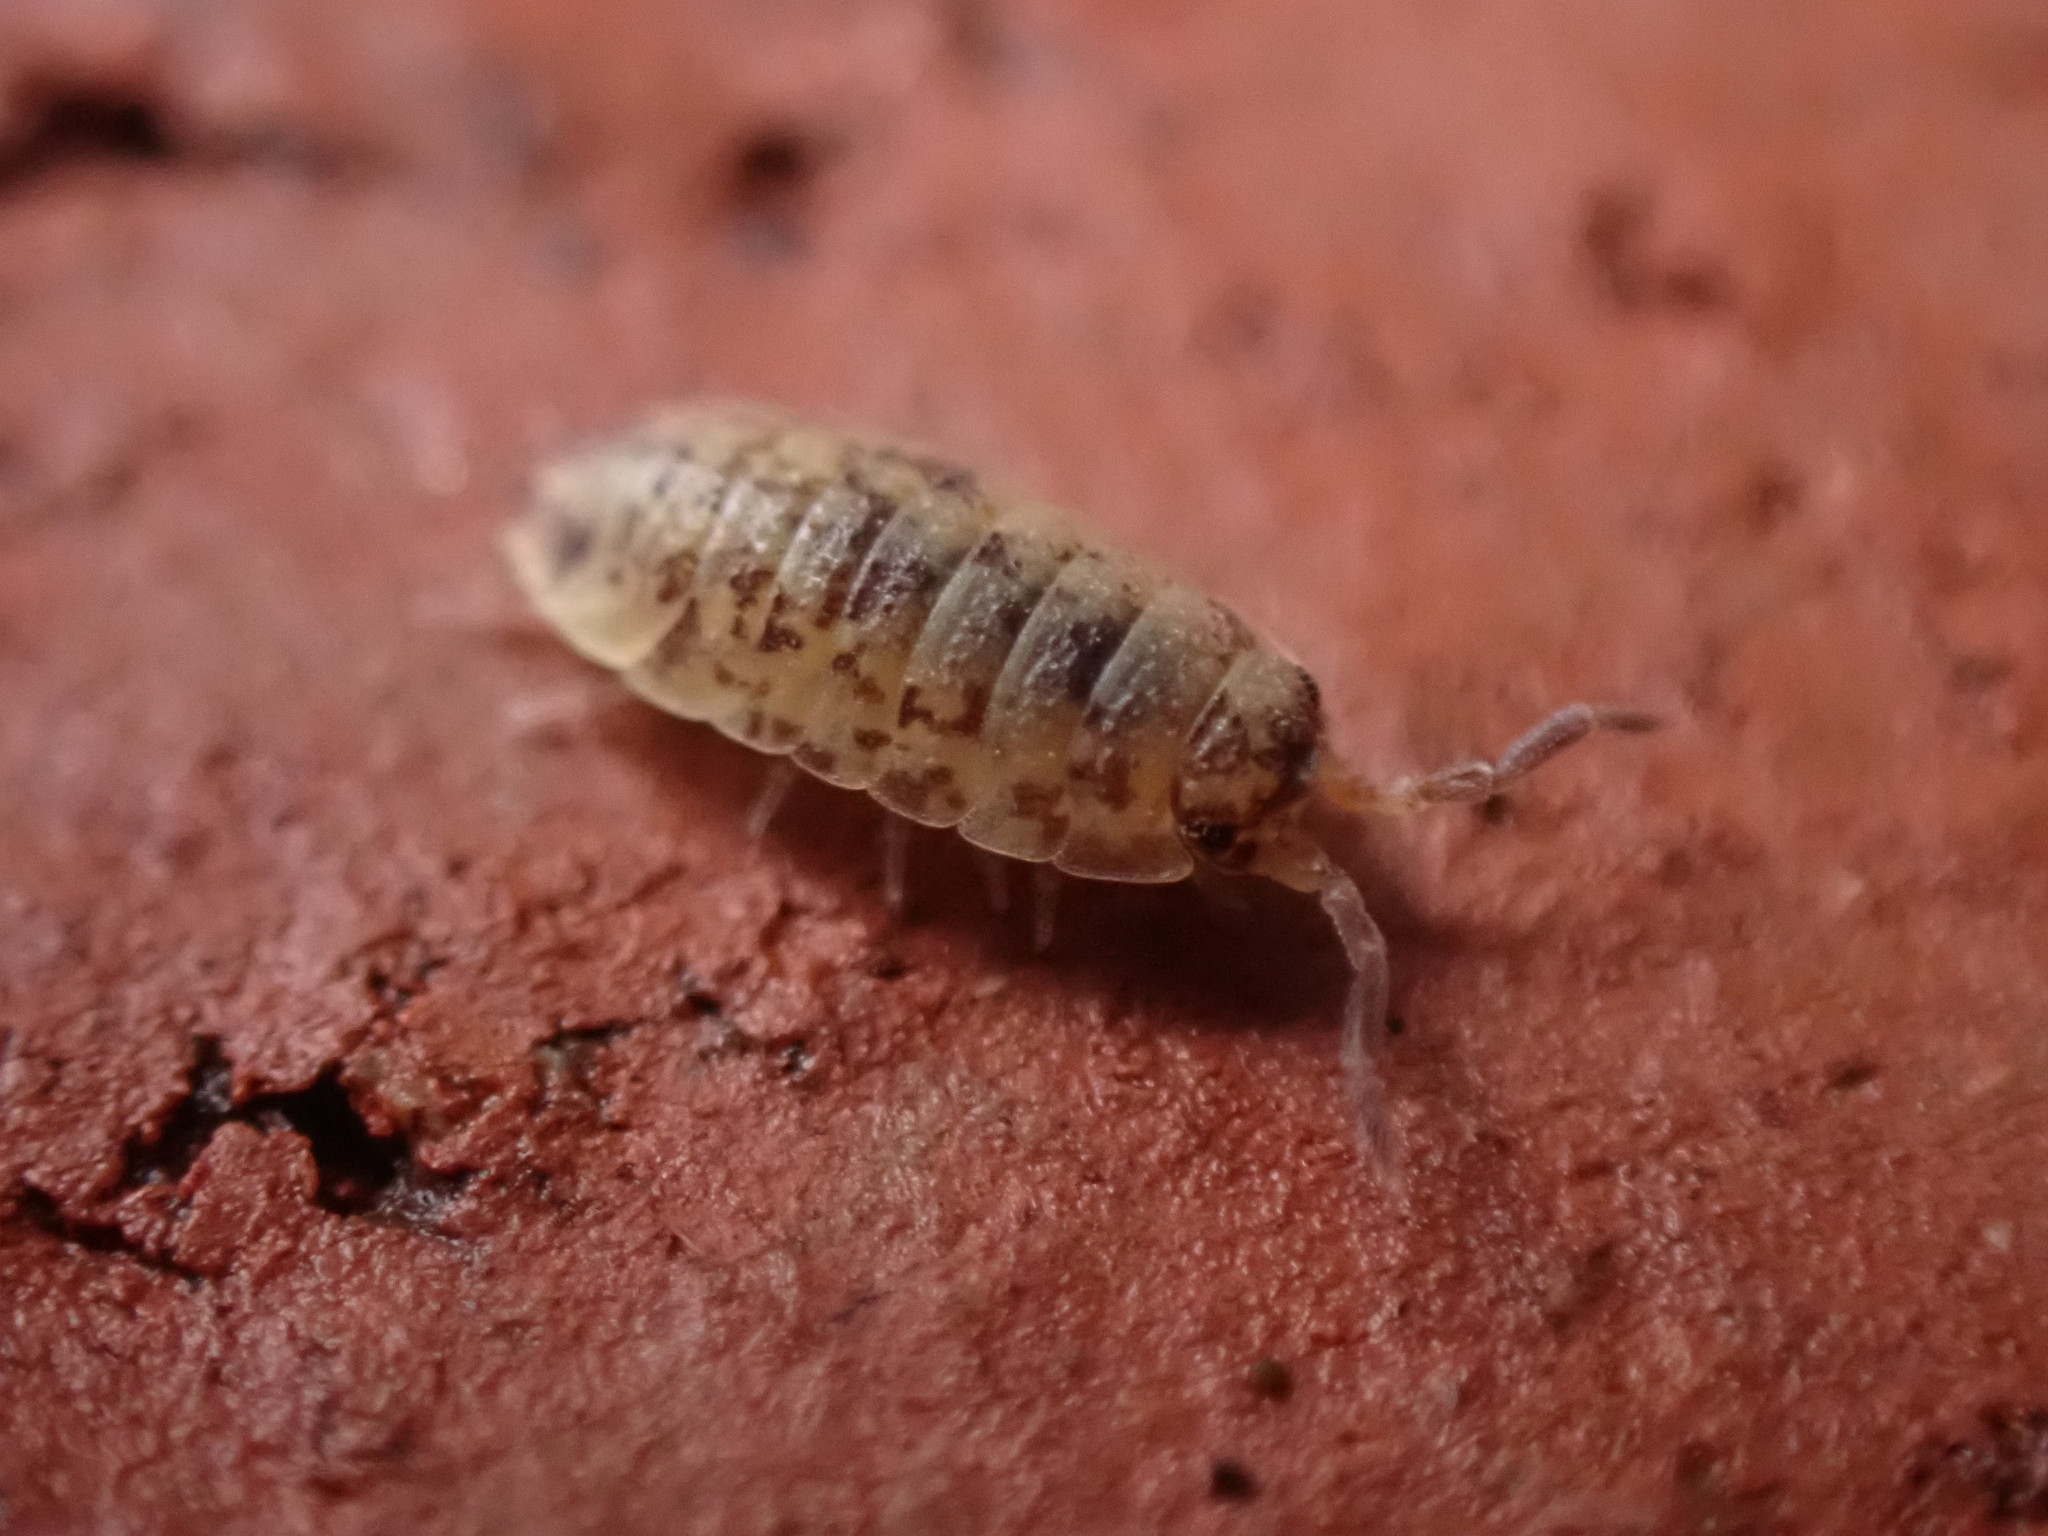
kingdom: Animalia
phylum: Arthropoda
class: Malacostraca
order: Isopoda
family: Porcellionidae
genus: Porcellio
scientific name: Porcellio scaber
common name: Common rough woodlouse
